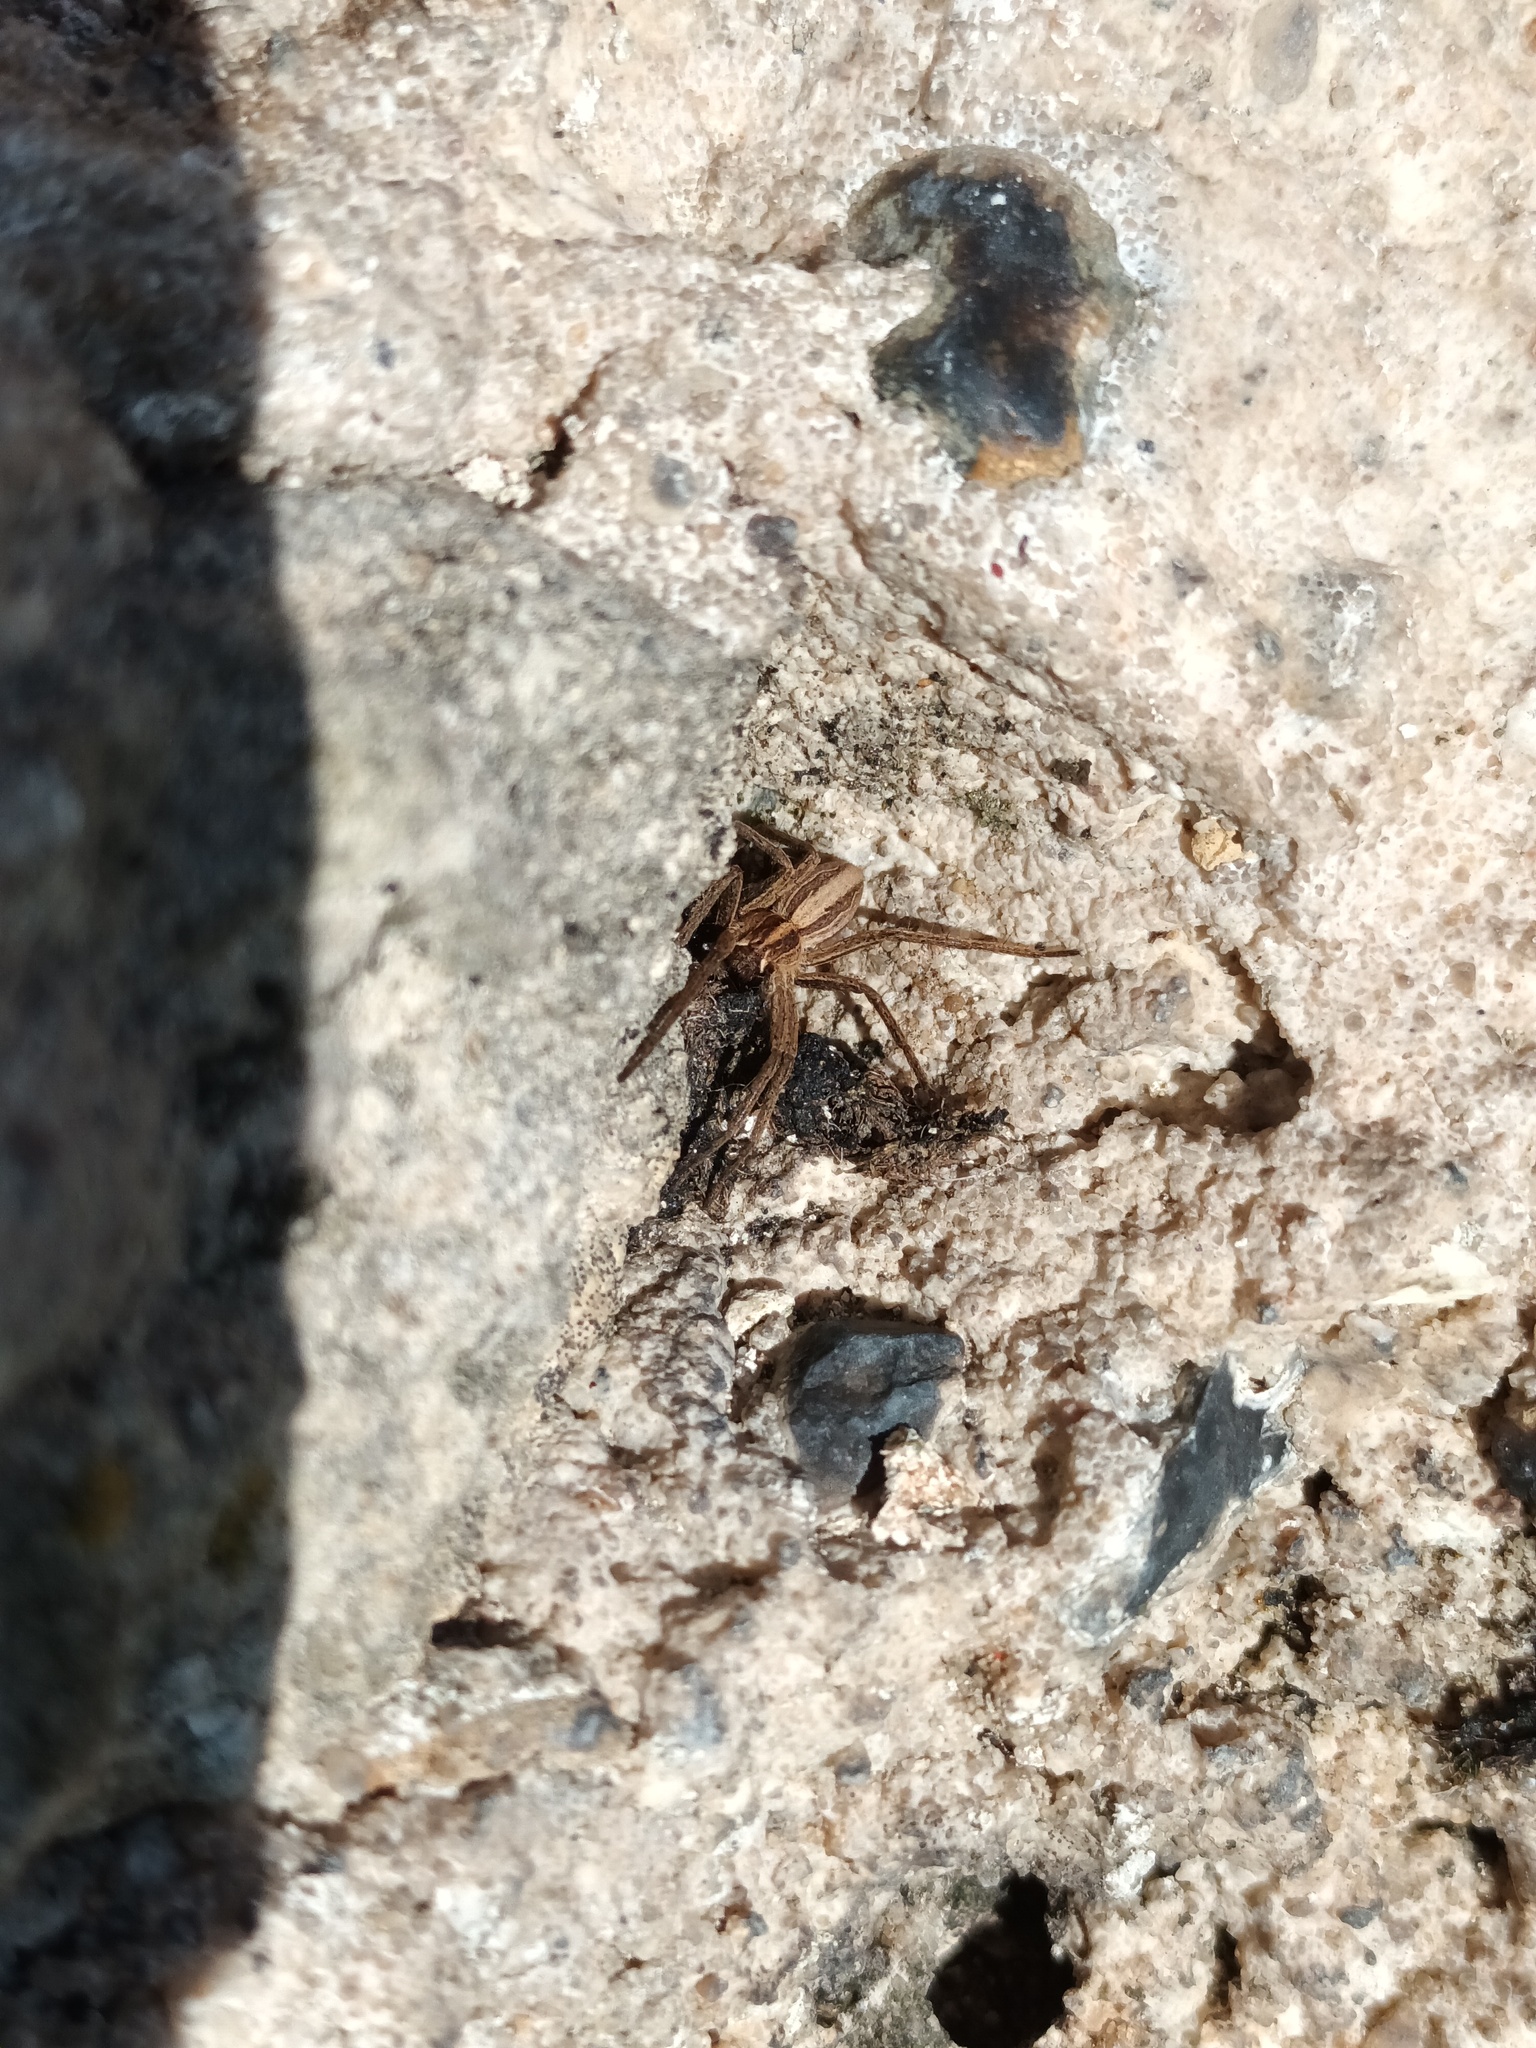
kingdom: Animalia
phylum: Arthropoda
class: Arachnida
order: Araneae
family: Pisauridae
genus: Pisaura
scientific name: Pisaura mirabilis
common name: Tent spider
